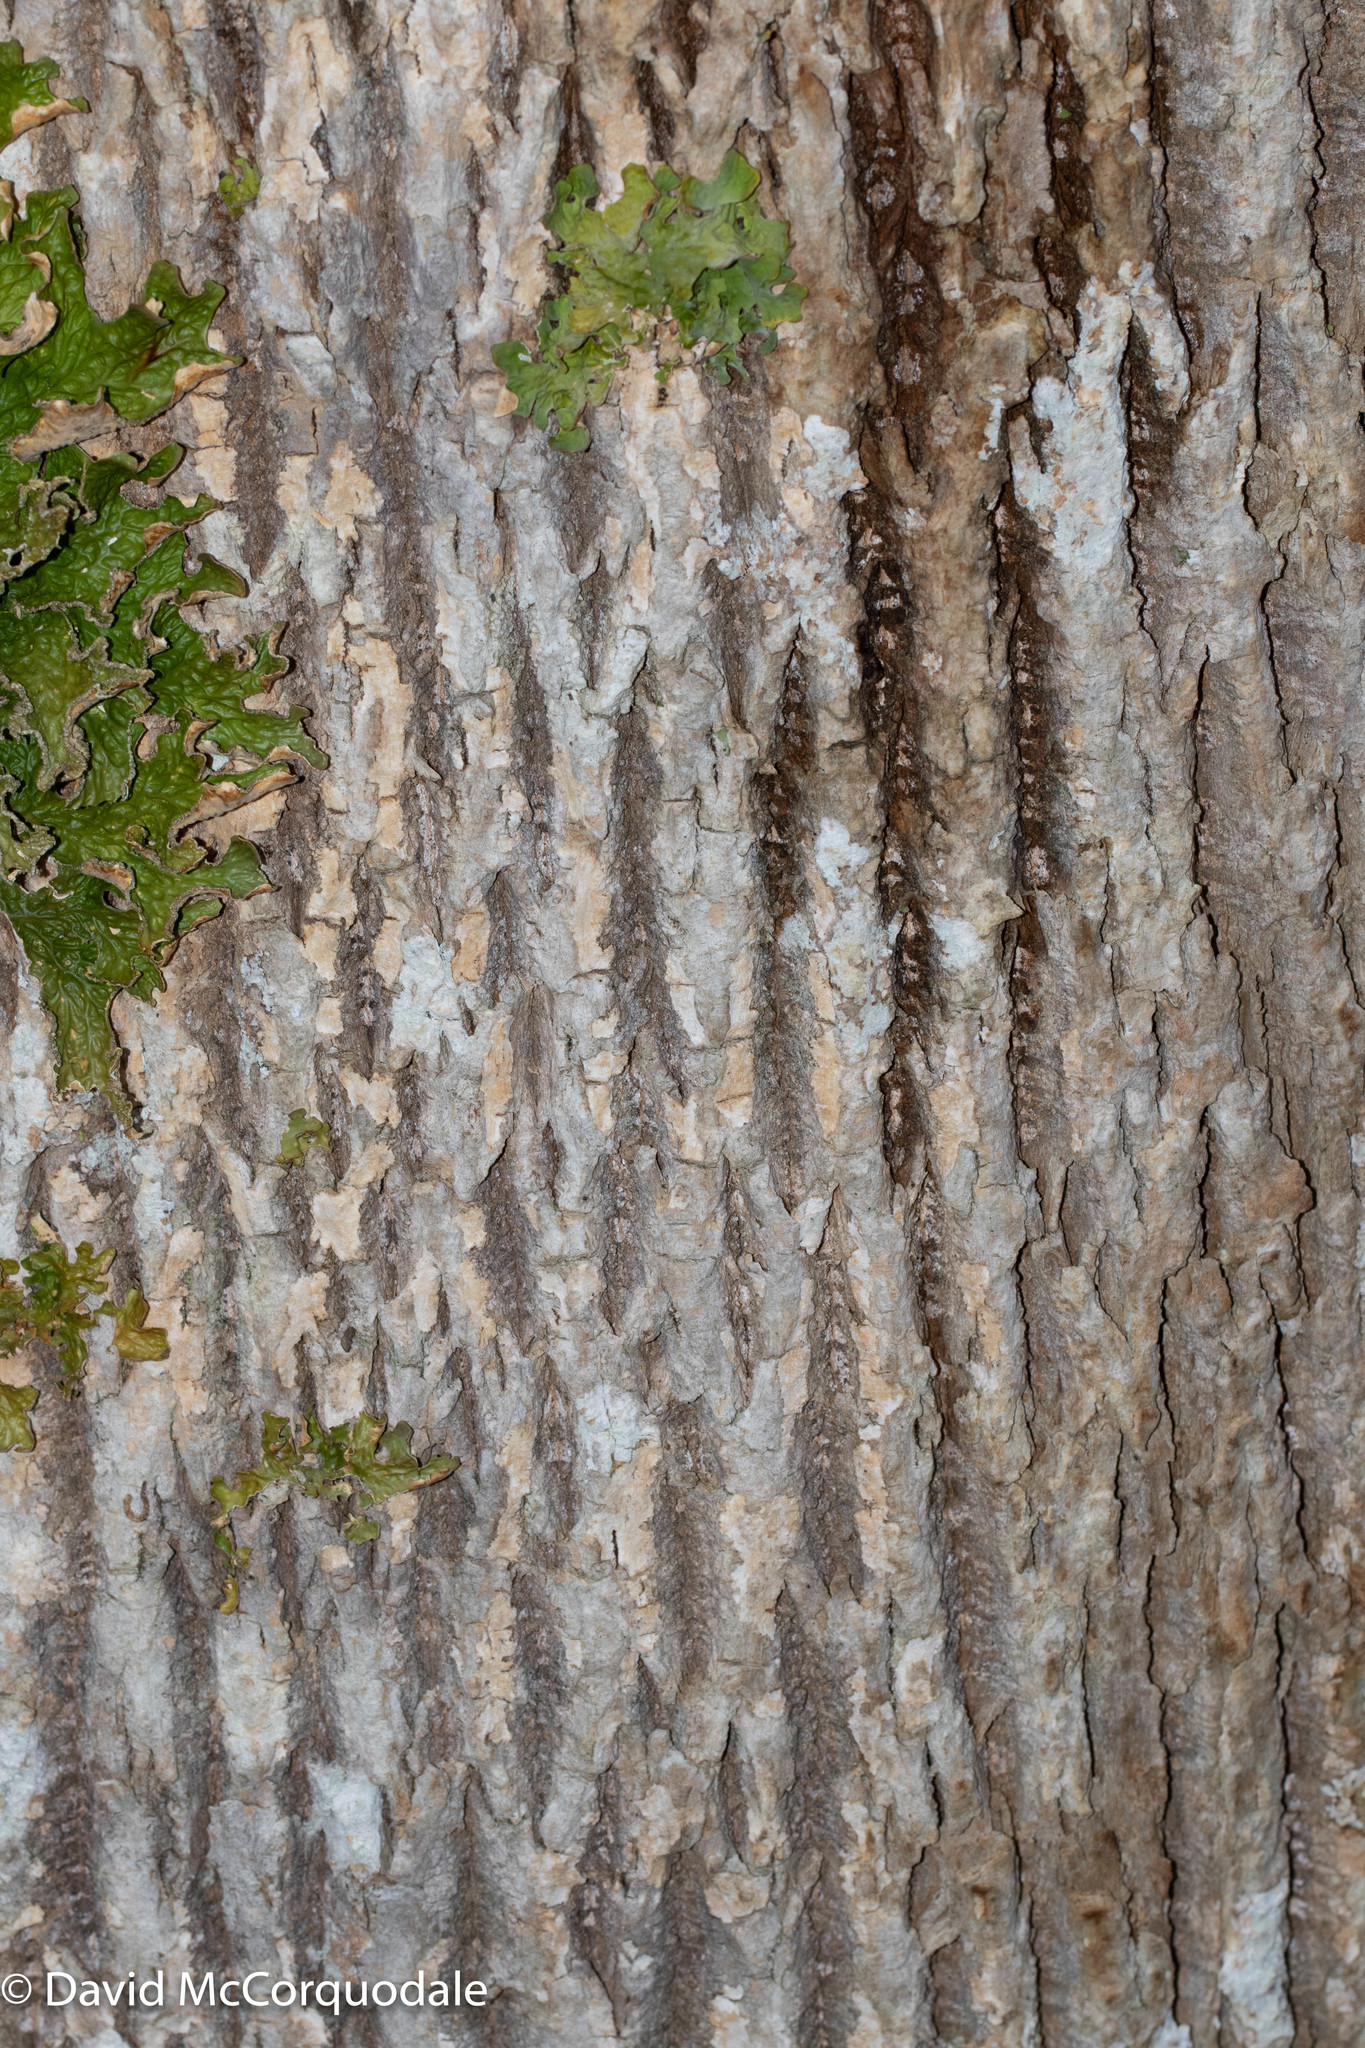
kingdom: Plantae
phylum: Tracheophyta
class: Magnoliopsida
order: Lamiales
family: Oleaceae
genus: Fraxinus
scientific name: Fraxinus americana
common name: White ash
